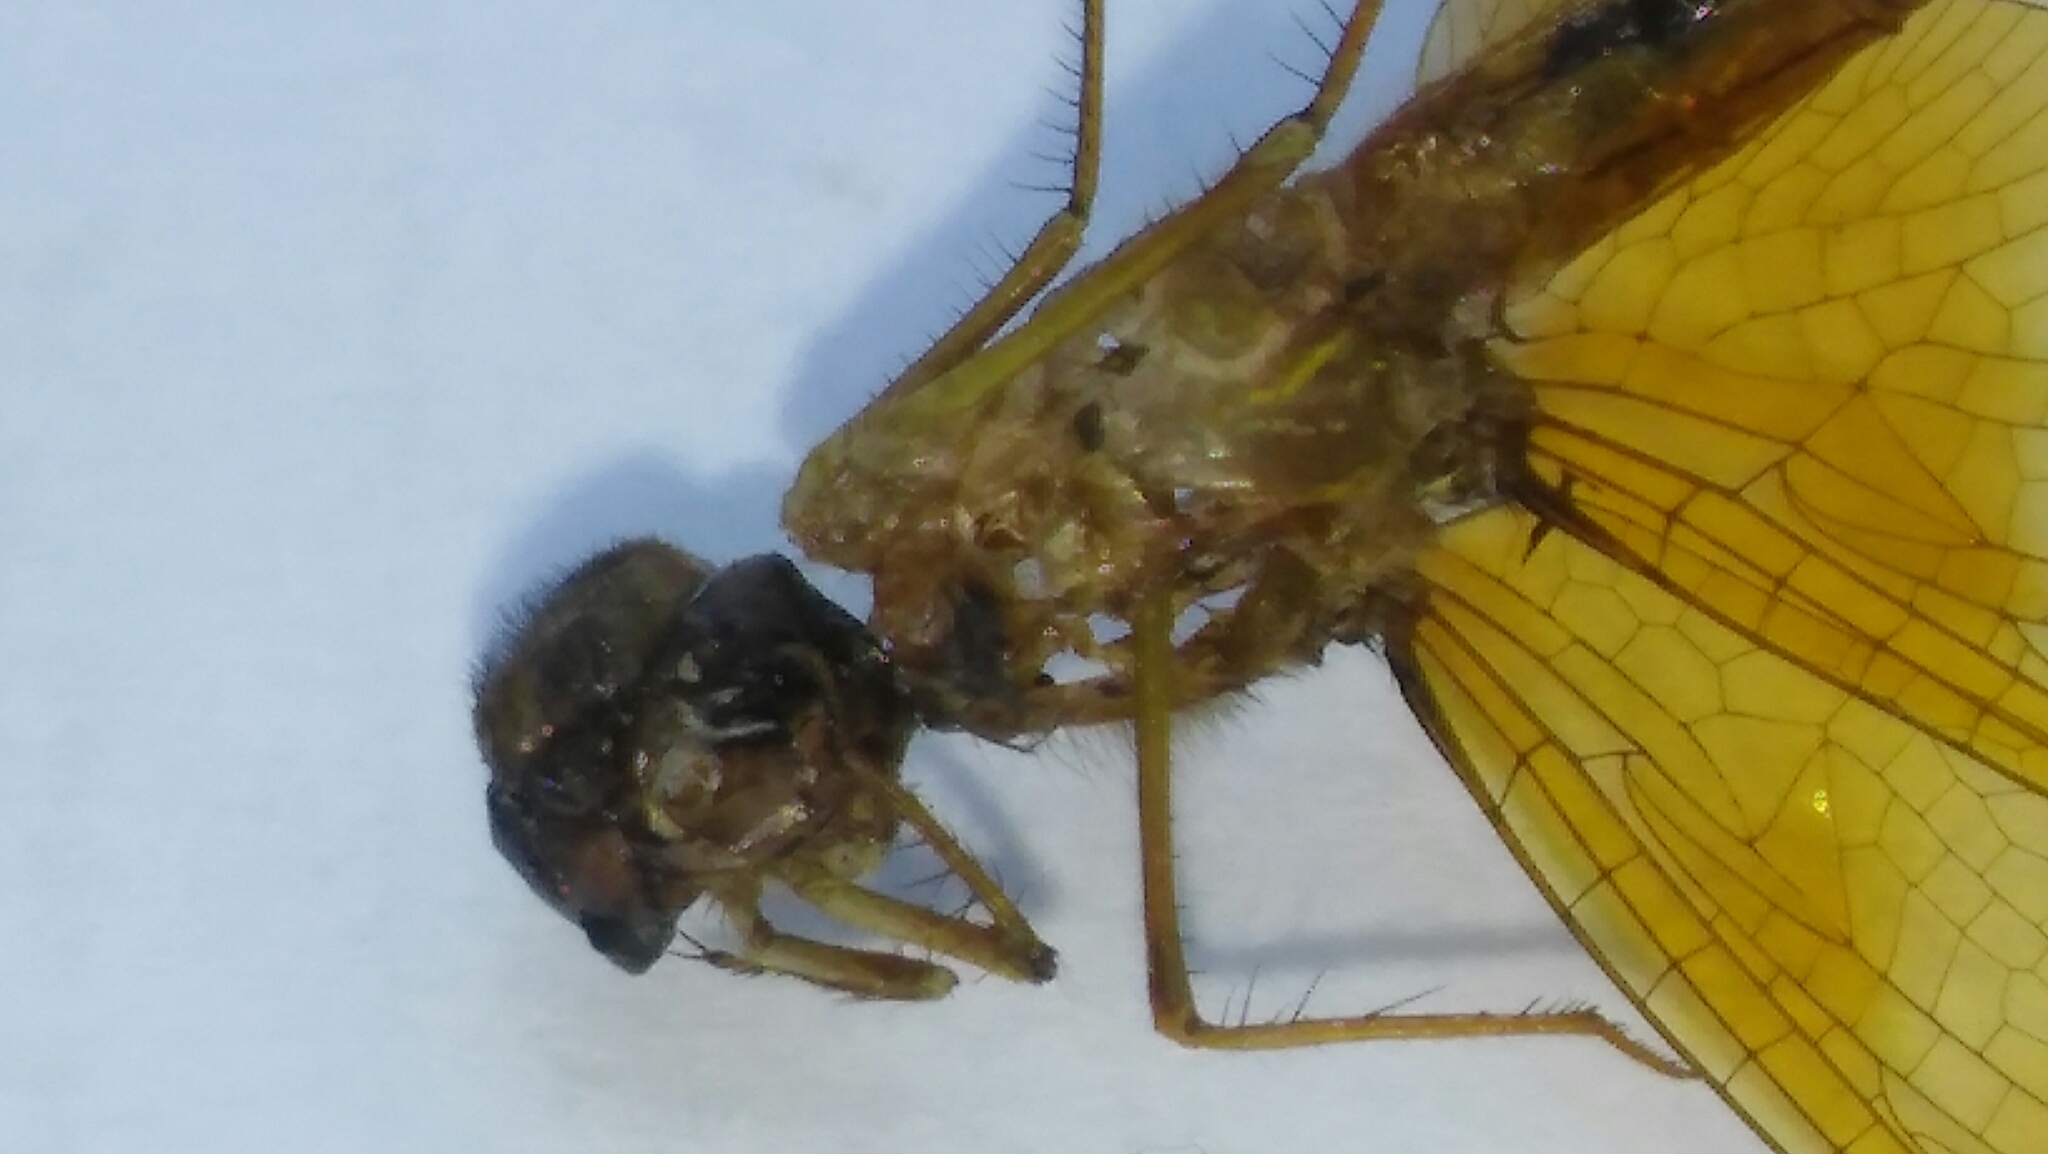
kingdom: Animalia
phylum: Arthropoda
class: Insecta
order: Odonata
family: Libellulidae
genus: Perithemis
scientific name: Perithemis tenera
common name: Eastern amberwing
